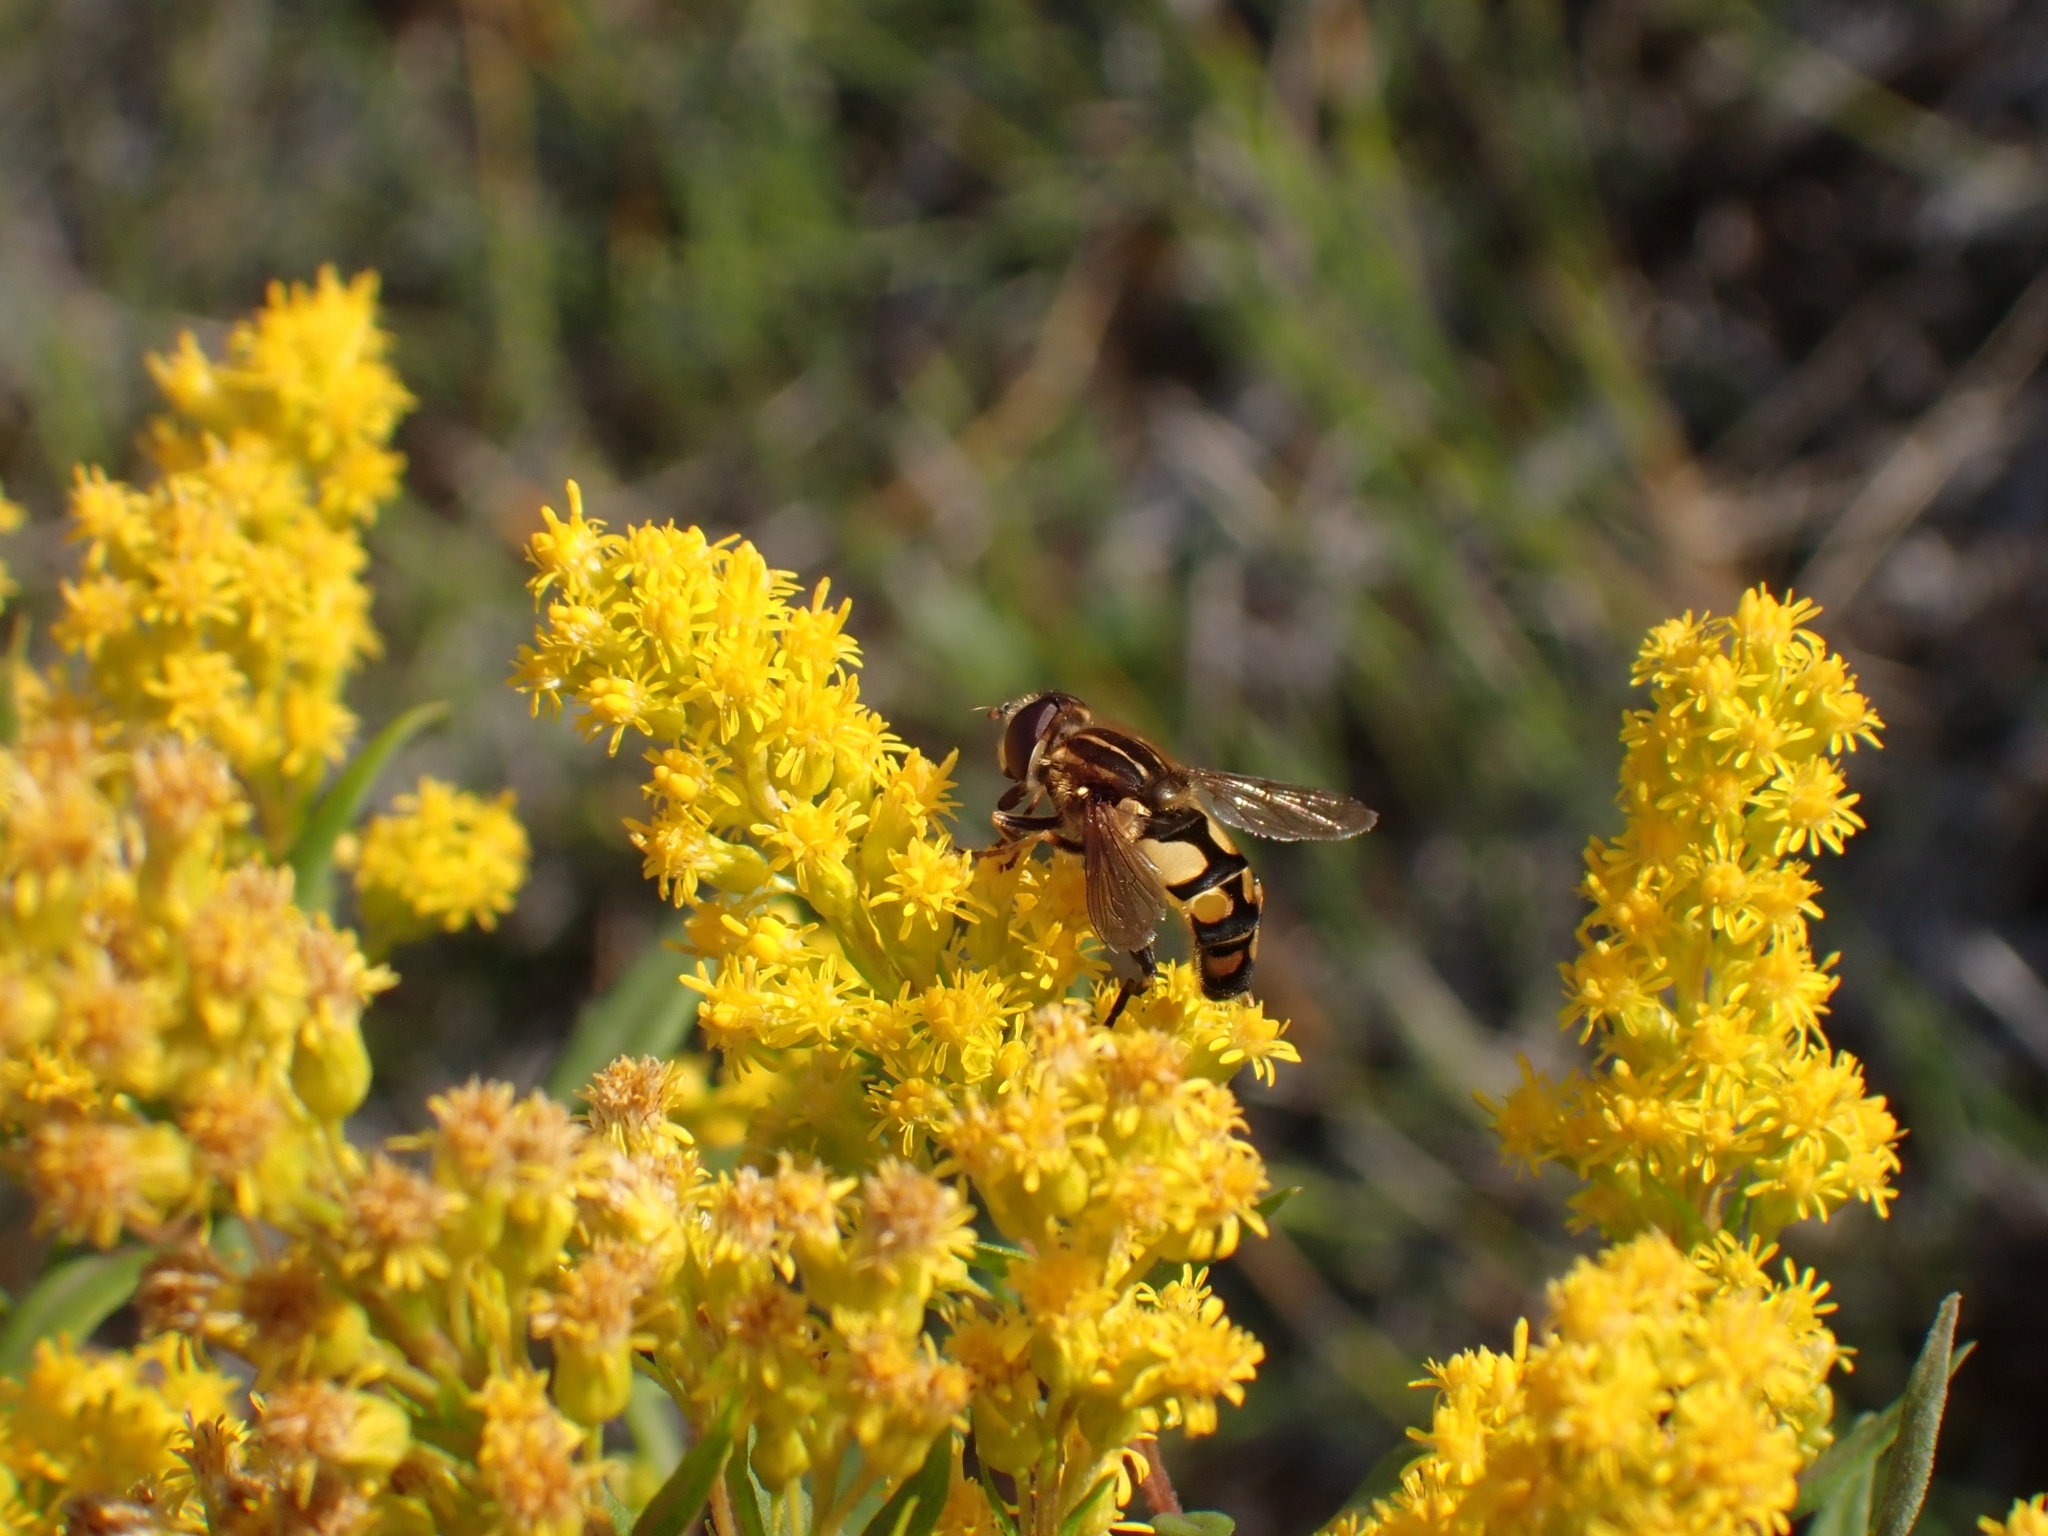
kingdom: Animalia
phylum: Arthropoda
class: Insecta
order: Diptera
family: Syrphidae
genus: Helophilus
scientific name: Helophilus obscurus
